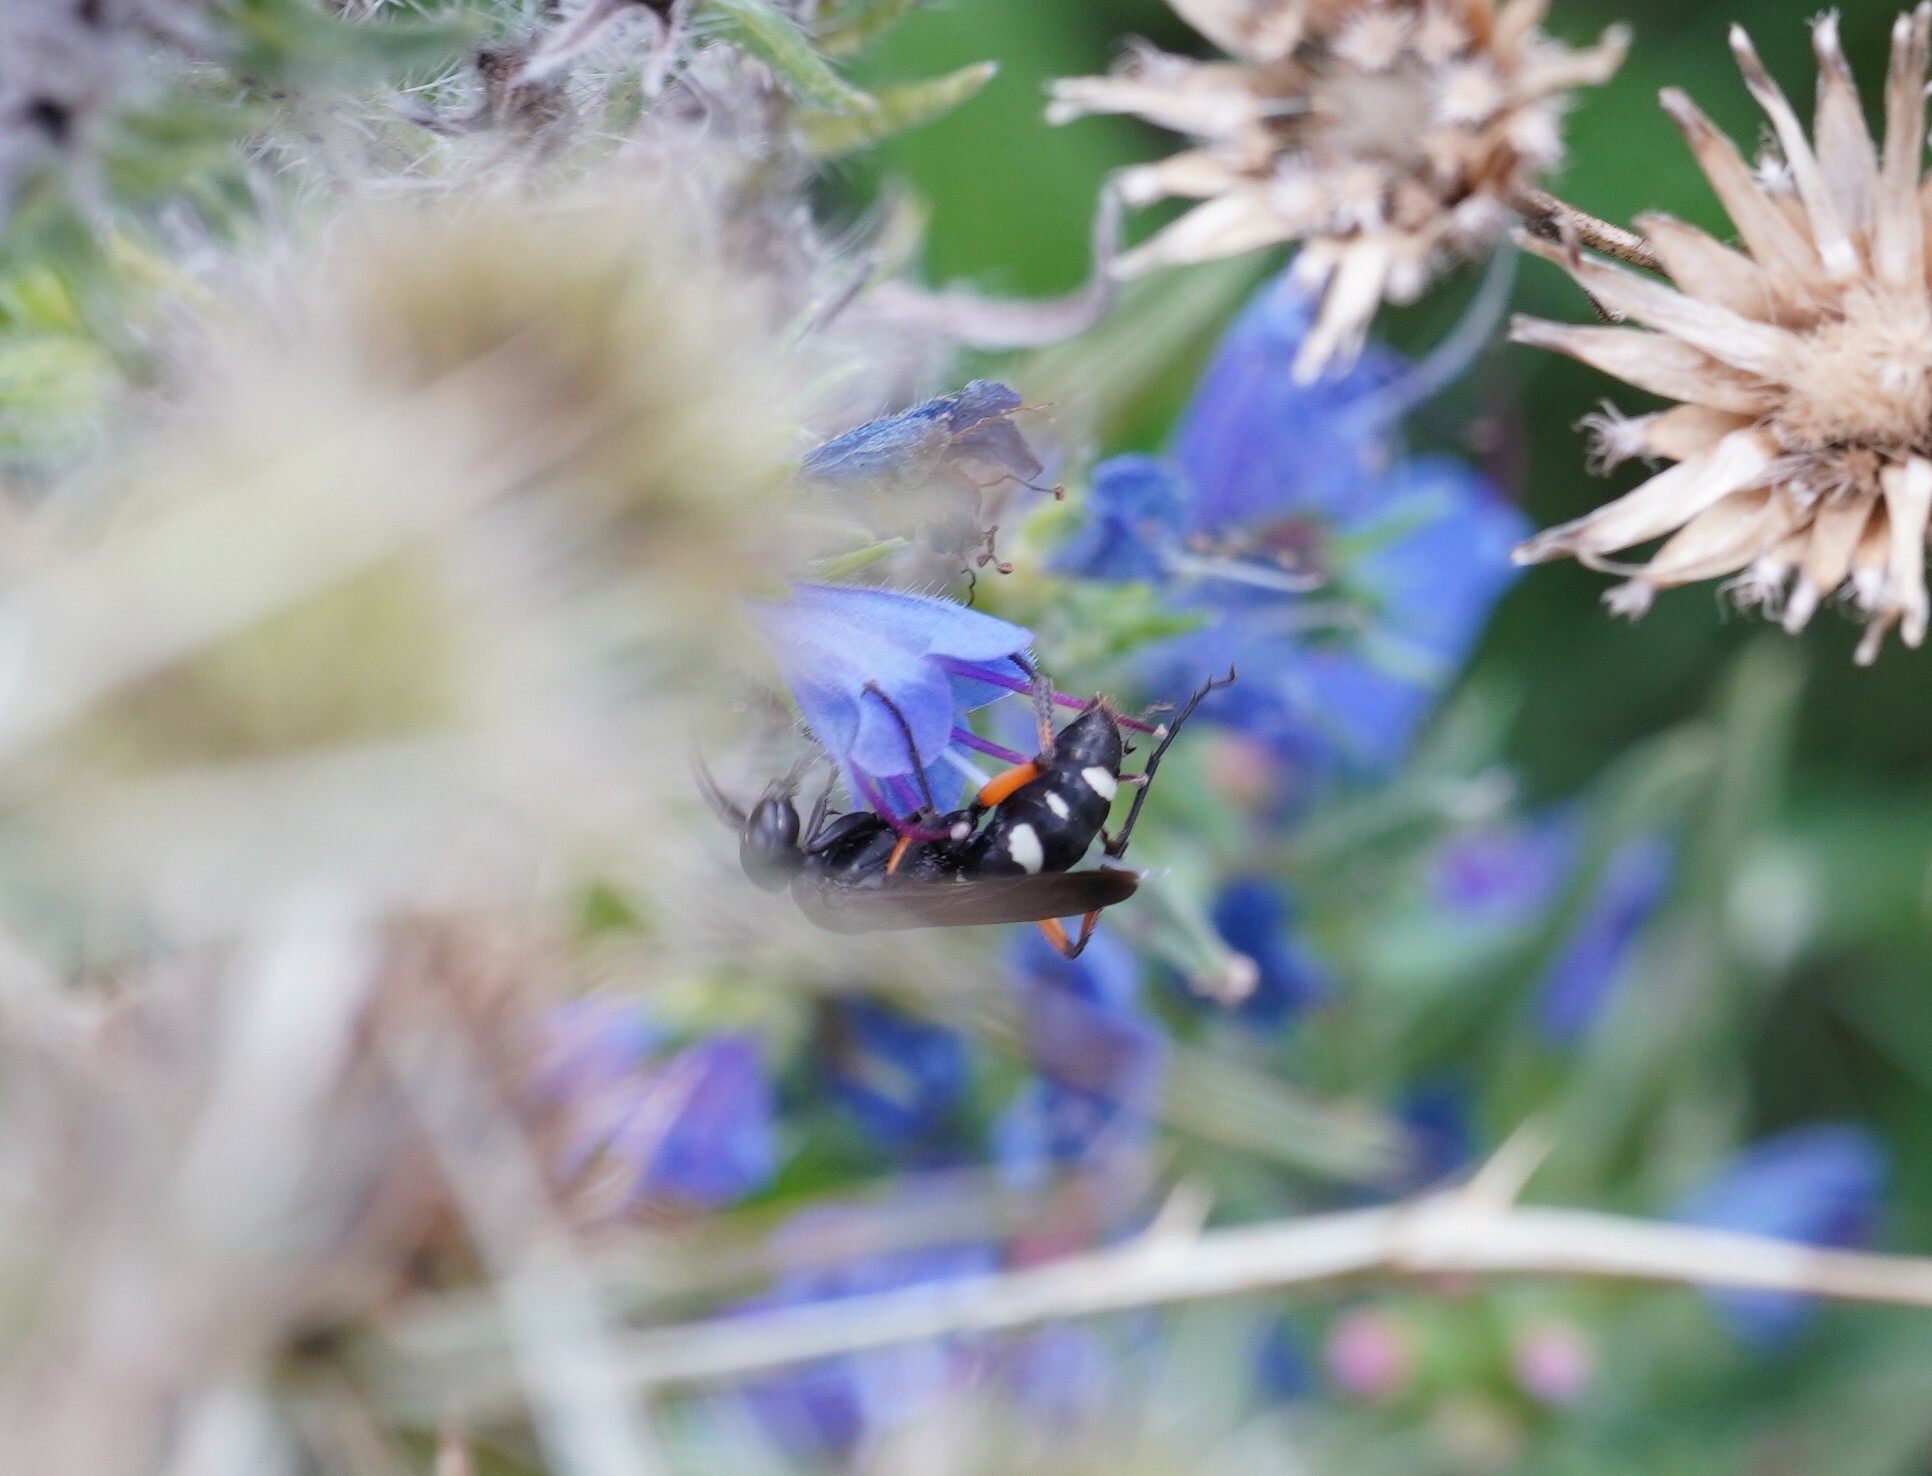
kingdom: Animalia
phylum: Arthropoda
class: Insecta
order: Hymenoptera
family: Pompilidae
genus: Cryptocheilus
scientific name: Cryptocheilus versicolor
